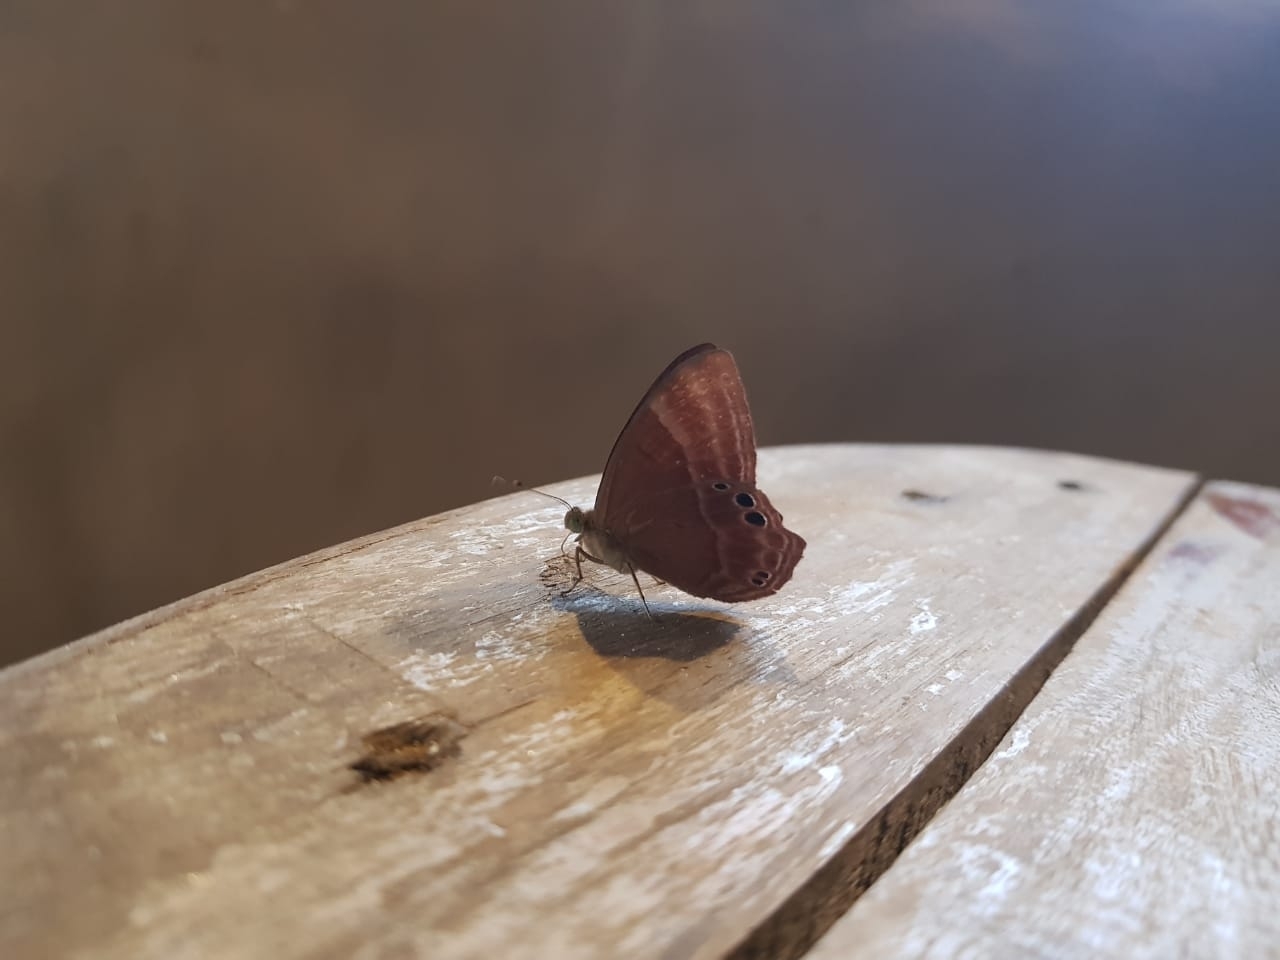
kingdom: Animalia
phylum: Arthropoda
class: Insecta
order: Lepidoptera
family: Lycaenidae
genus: Abisara
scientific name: Abisara echeria
